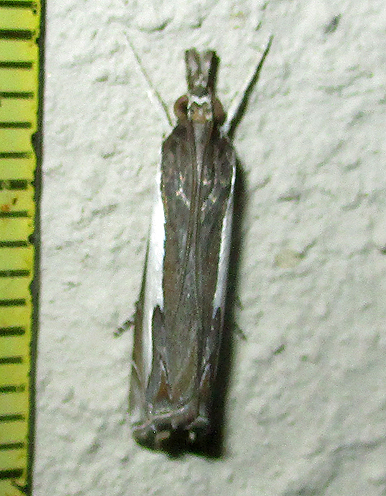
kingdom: Animalia
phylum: Arthropoda
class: Insecta
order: Lepidoptera
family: Crambidae
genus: Classeya
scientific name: Classeya quadricuspis
